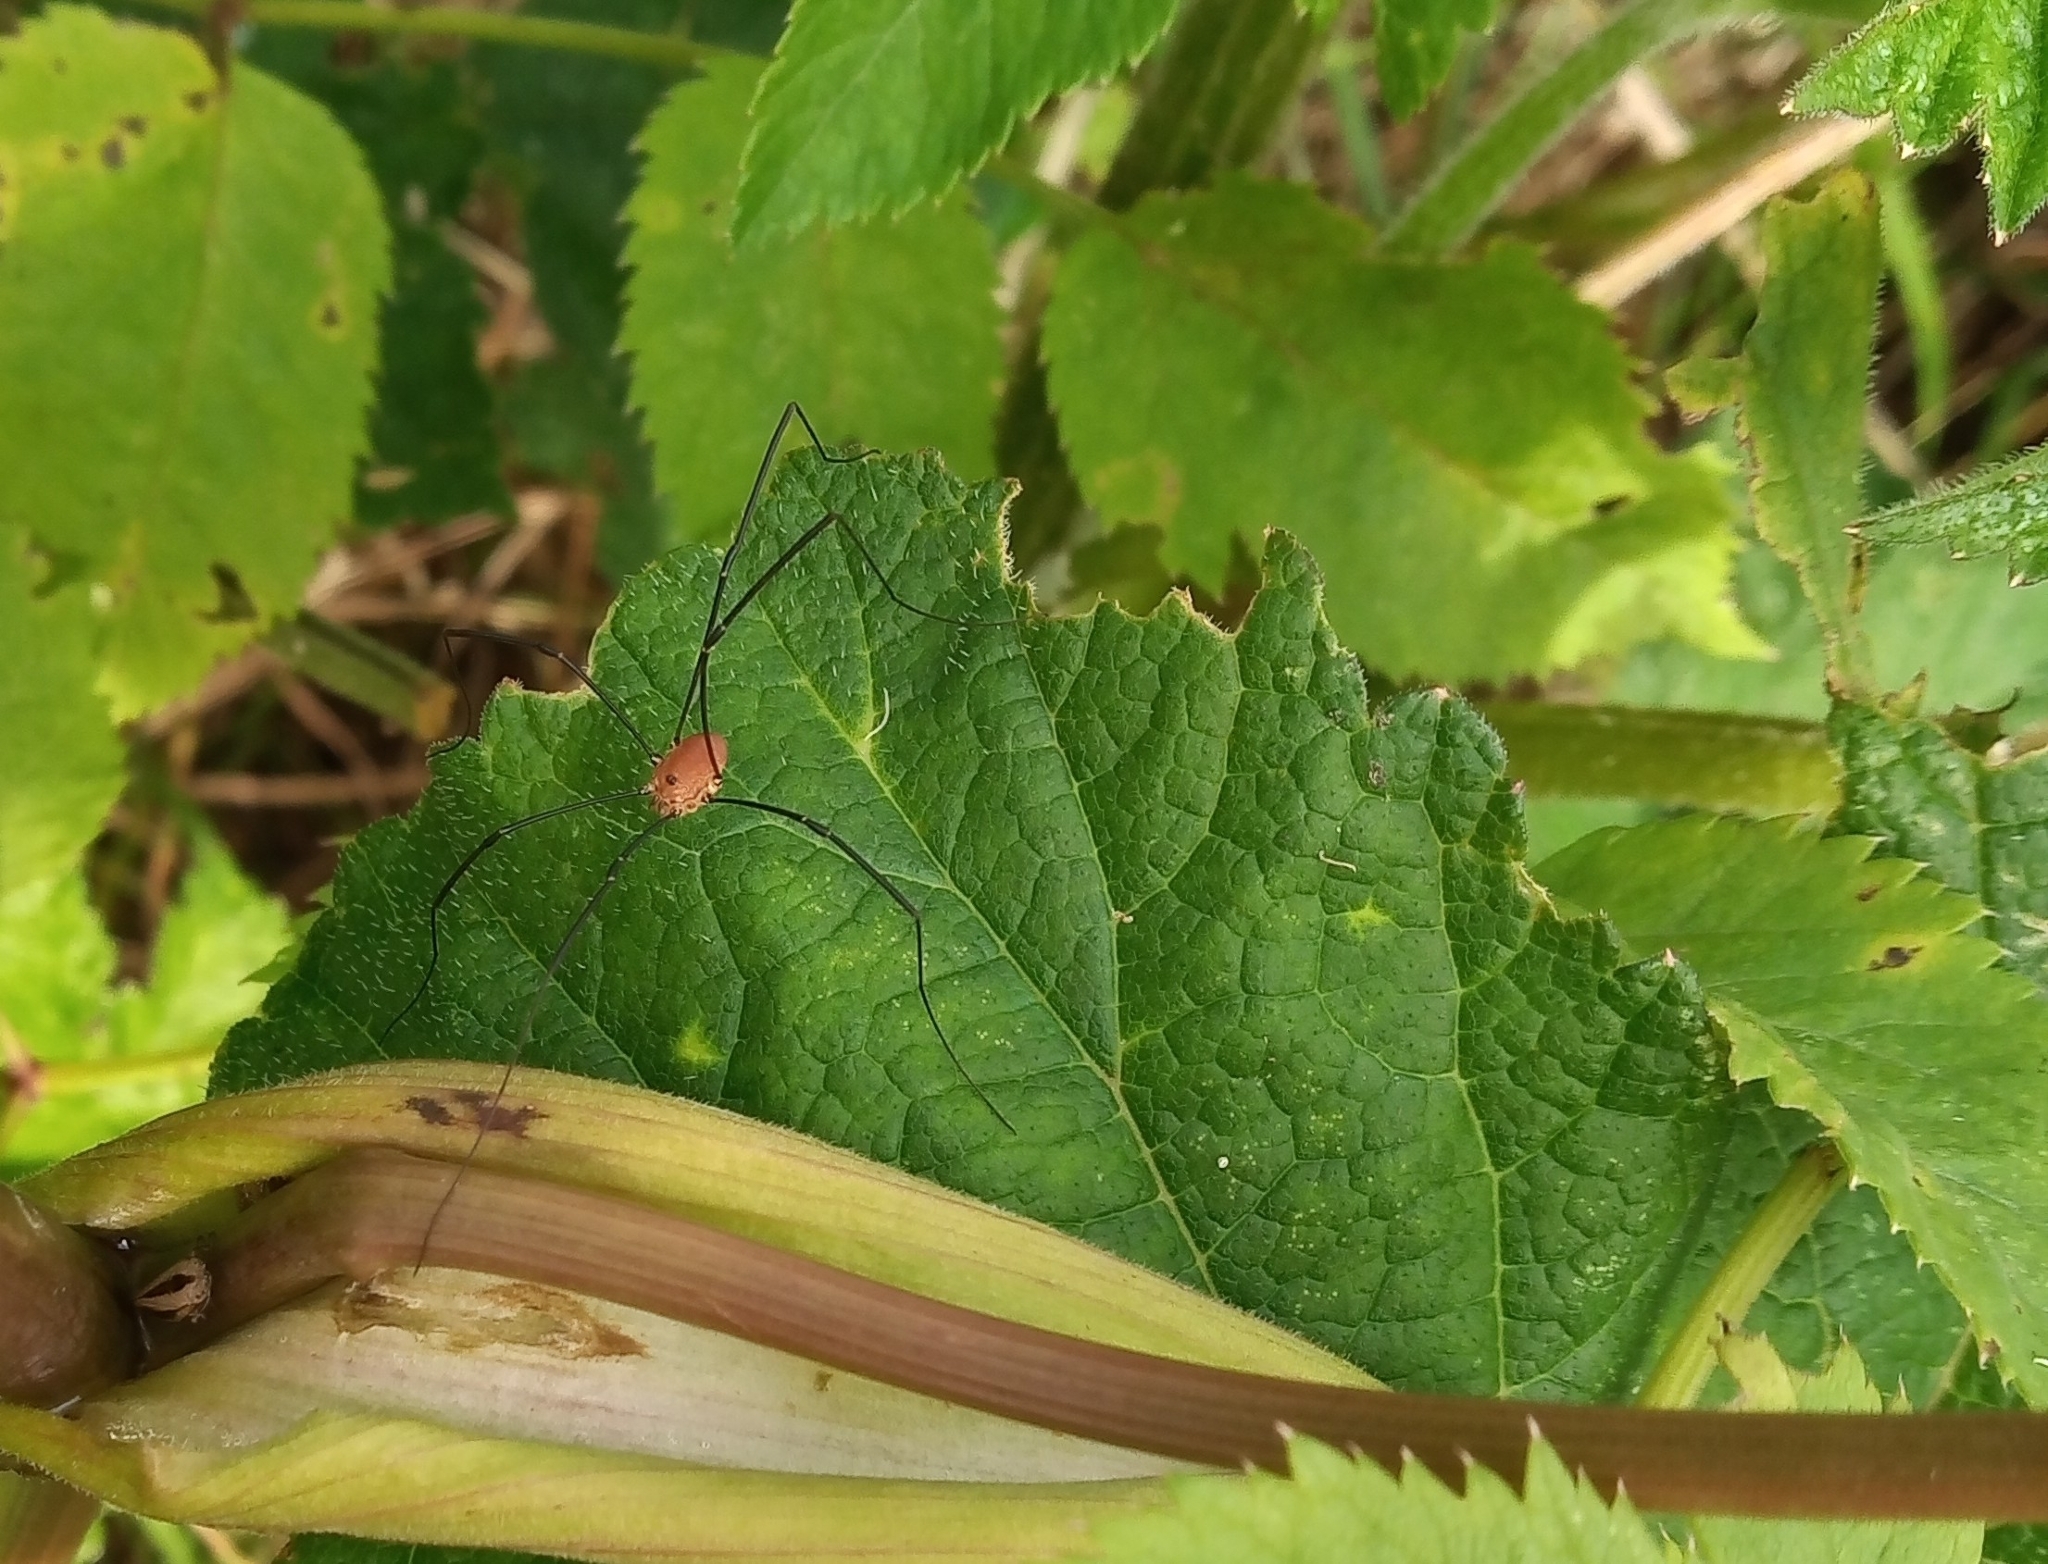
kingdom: Animalia
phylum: Arthropoda
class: Arachnida
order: Opiliones
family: Sclerosomatidae
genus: Leiobunum
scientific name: Leiobunum rotundum
